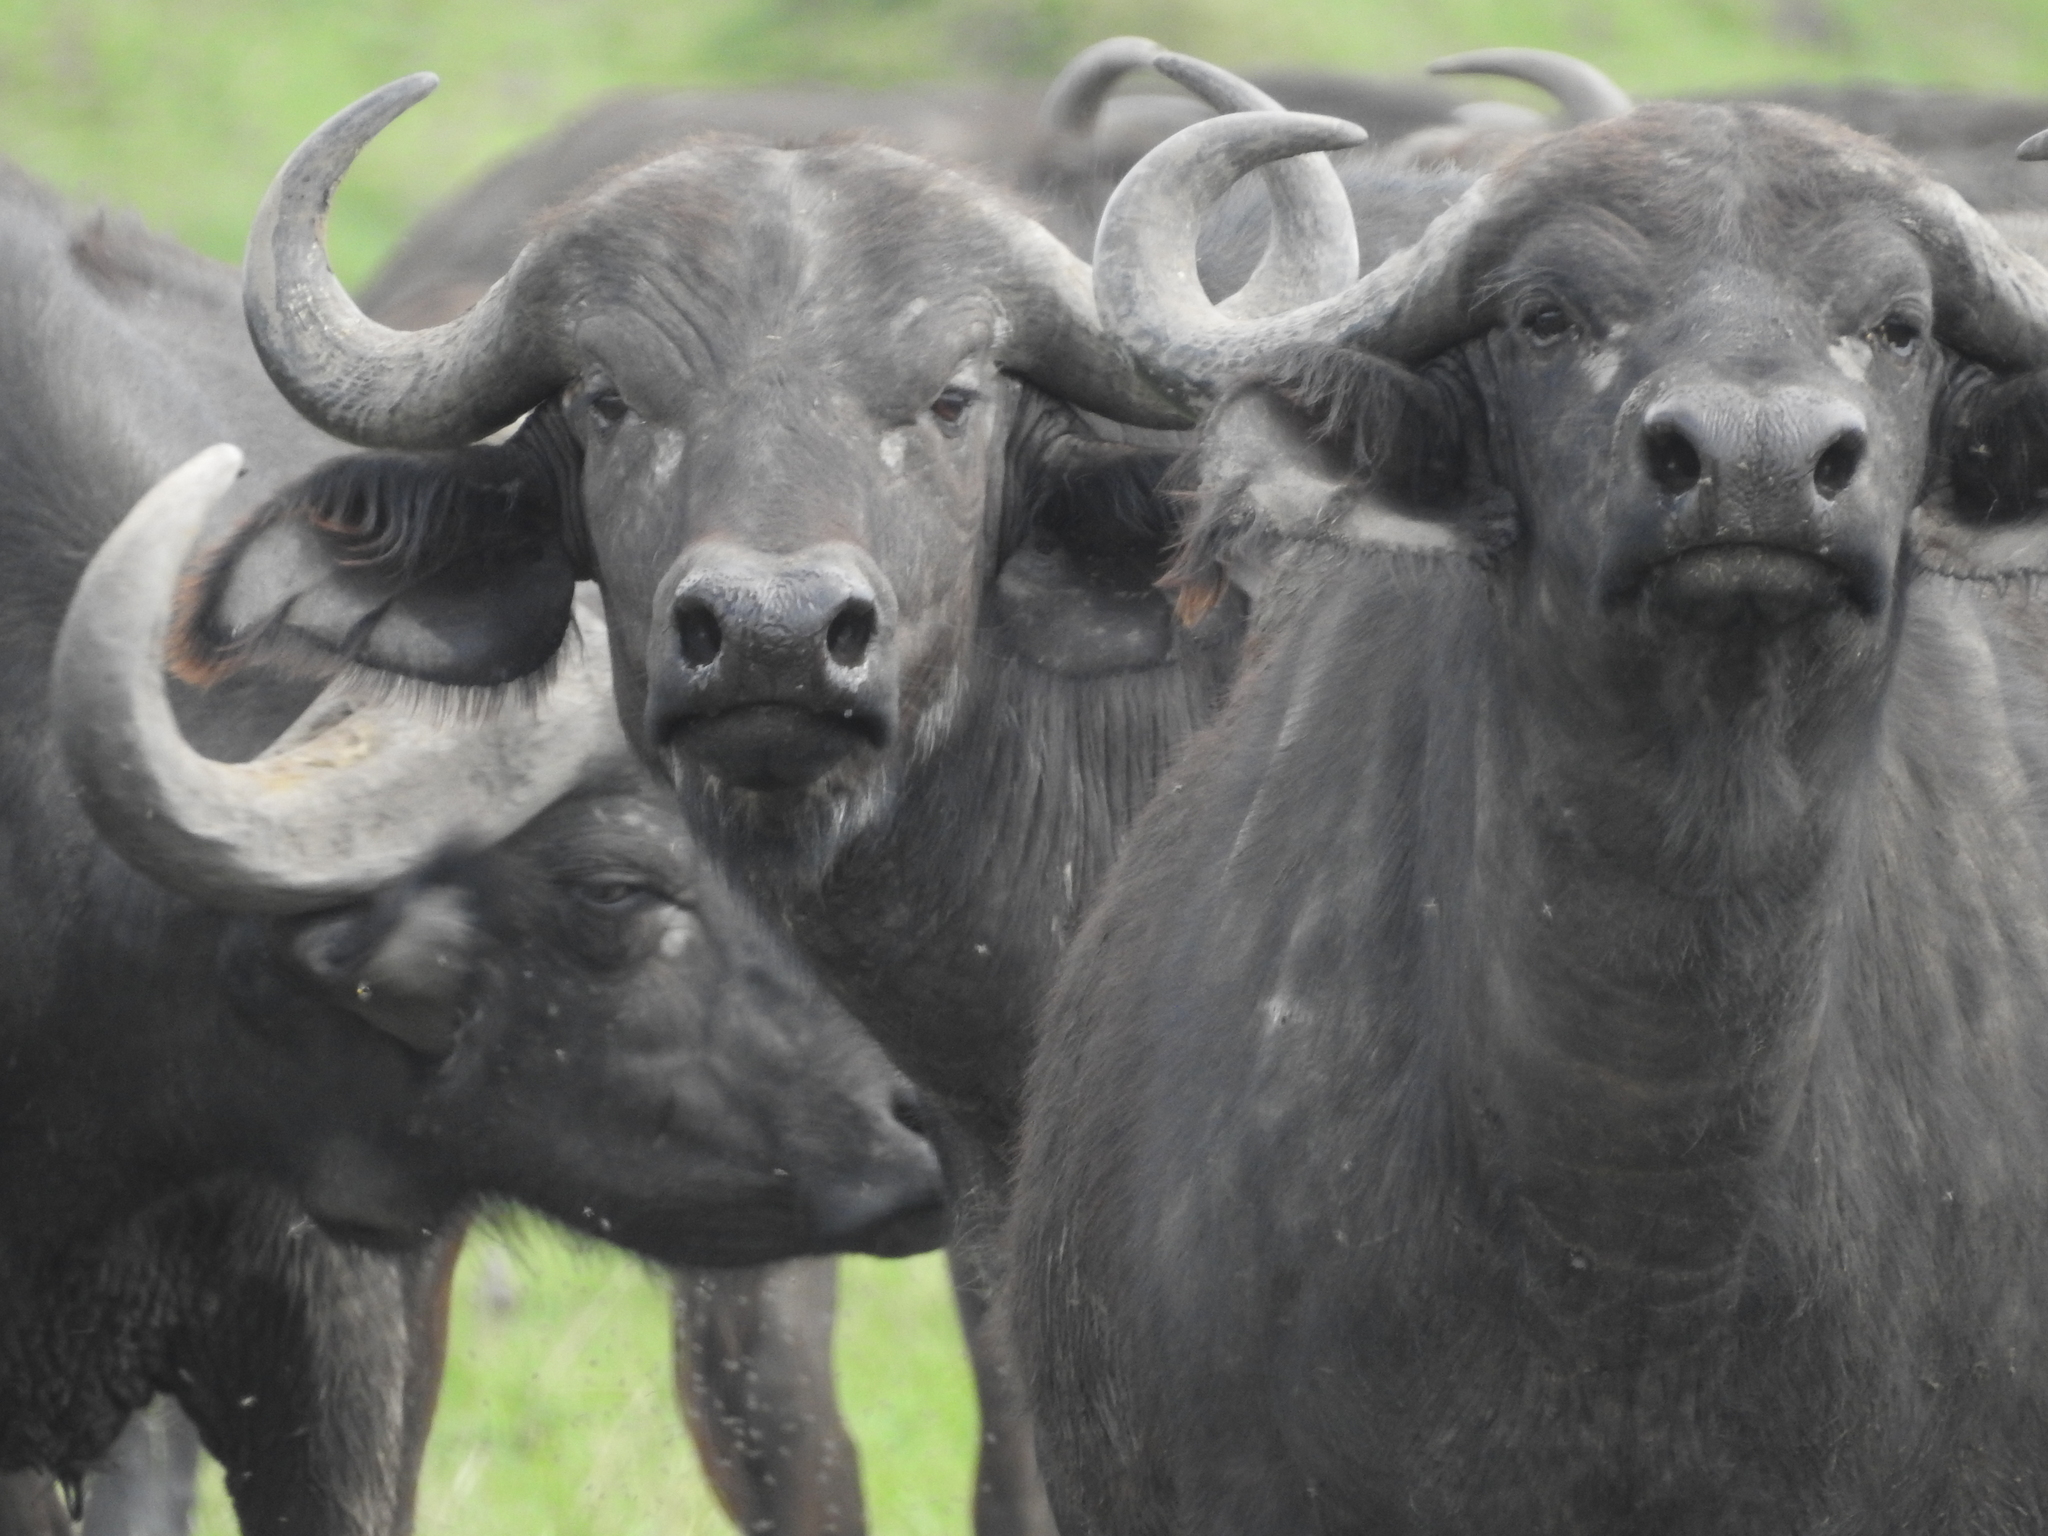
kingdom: Animalia
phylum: Chordata
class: Mammalia
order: Artiodactyla
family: Bovidae
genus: Syncerus
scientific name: Syncerus caffer
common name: African buffalo
